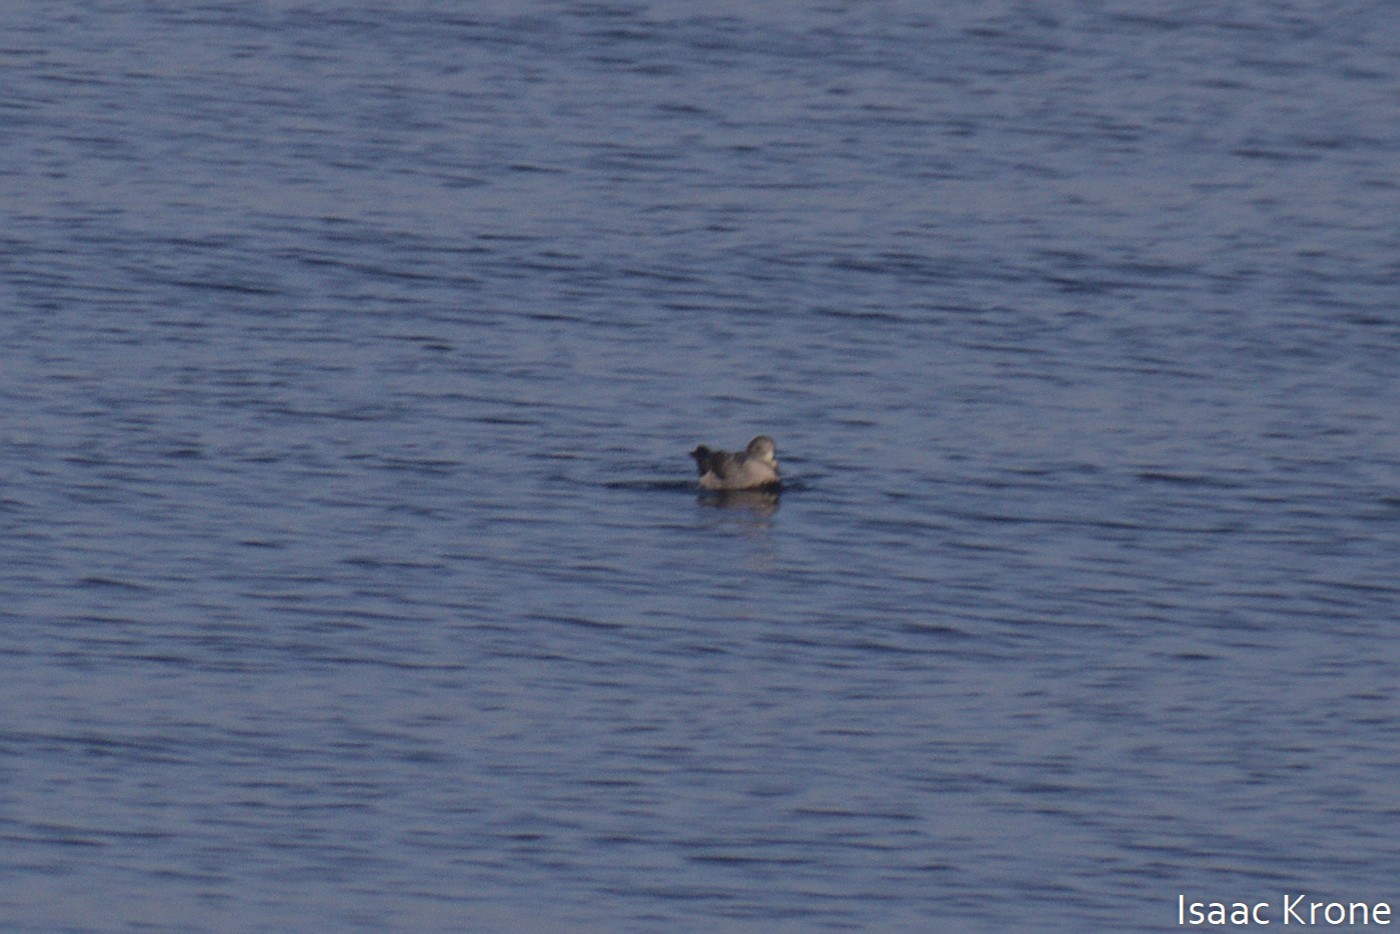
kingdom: Animalia
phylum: Chordata
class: Aves
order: Procellariiformes
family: Procellariidae
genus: Fulmarus
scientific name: Fulmarus glacialis
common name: Northern fulmar
